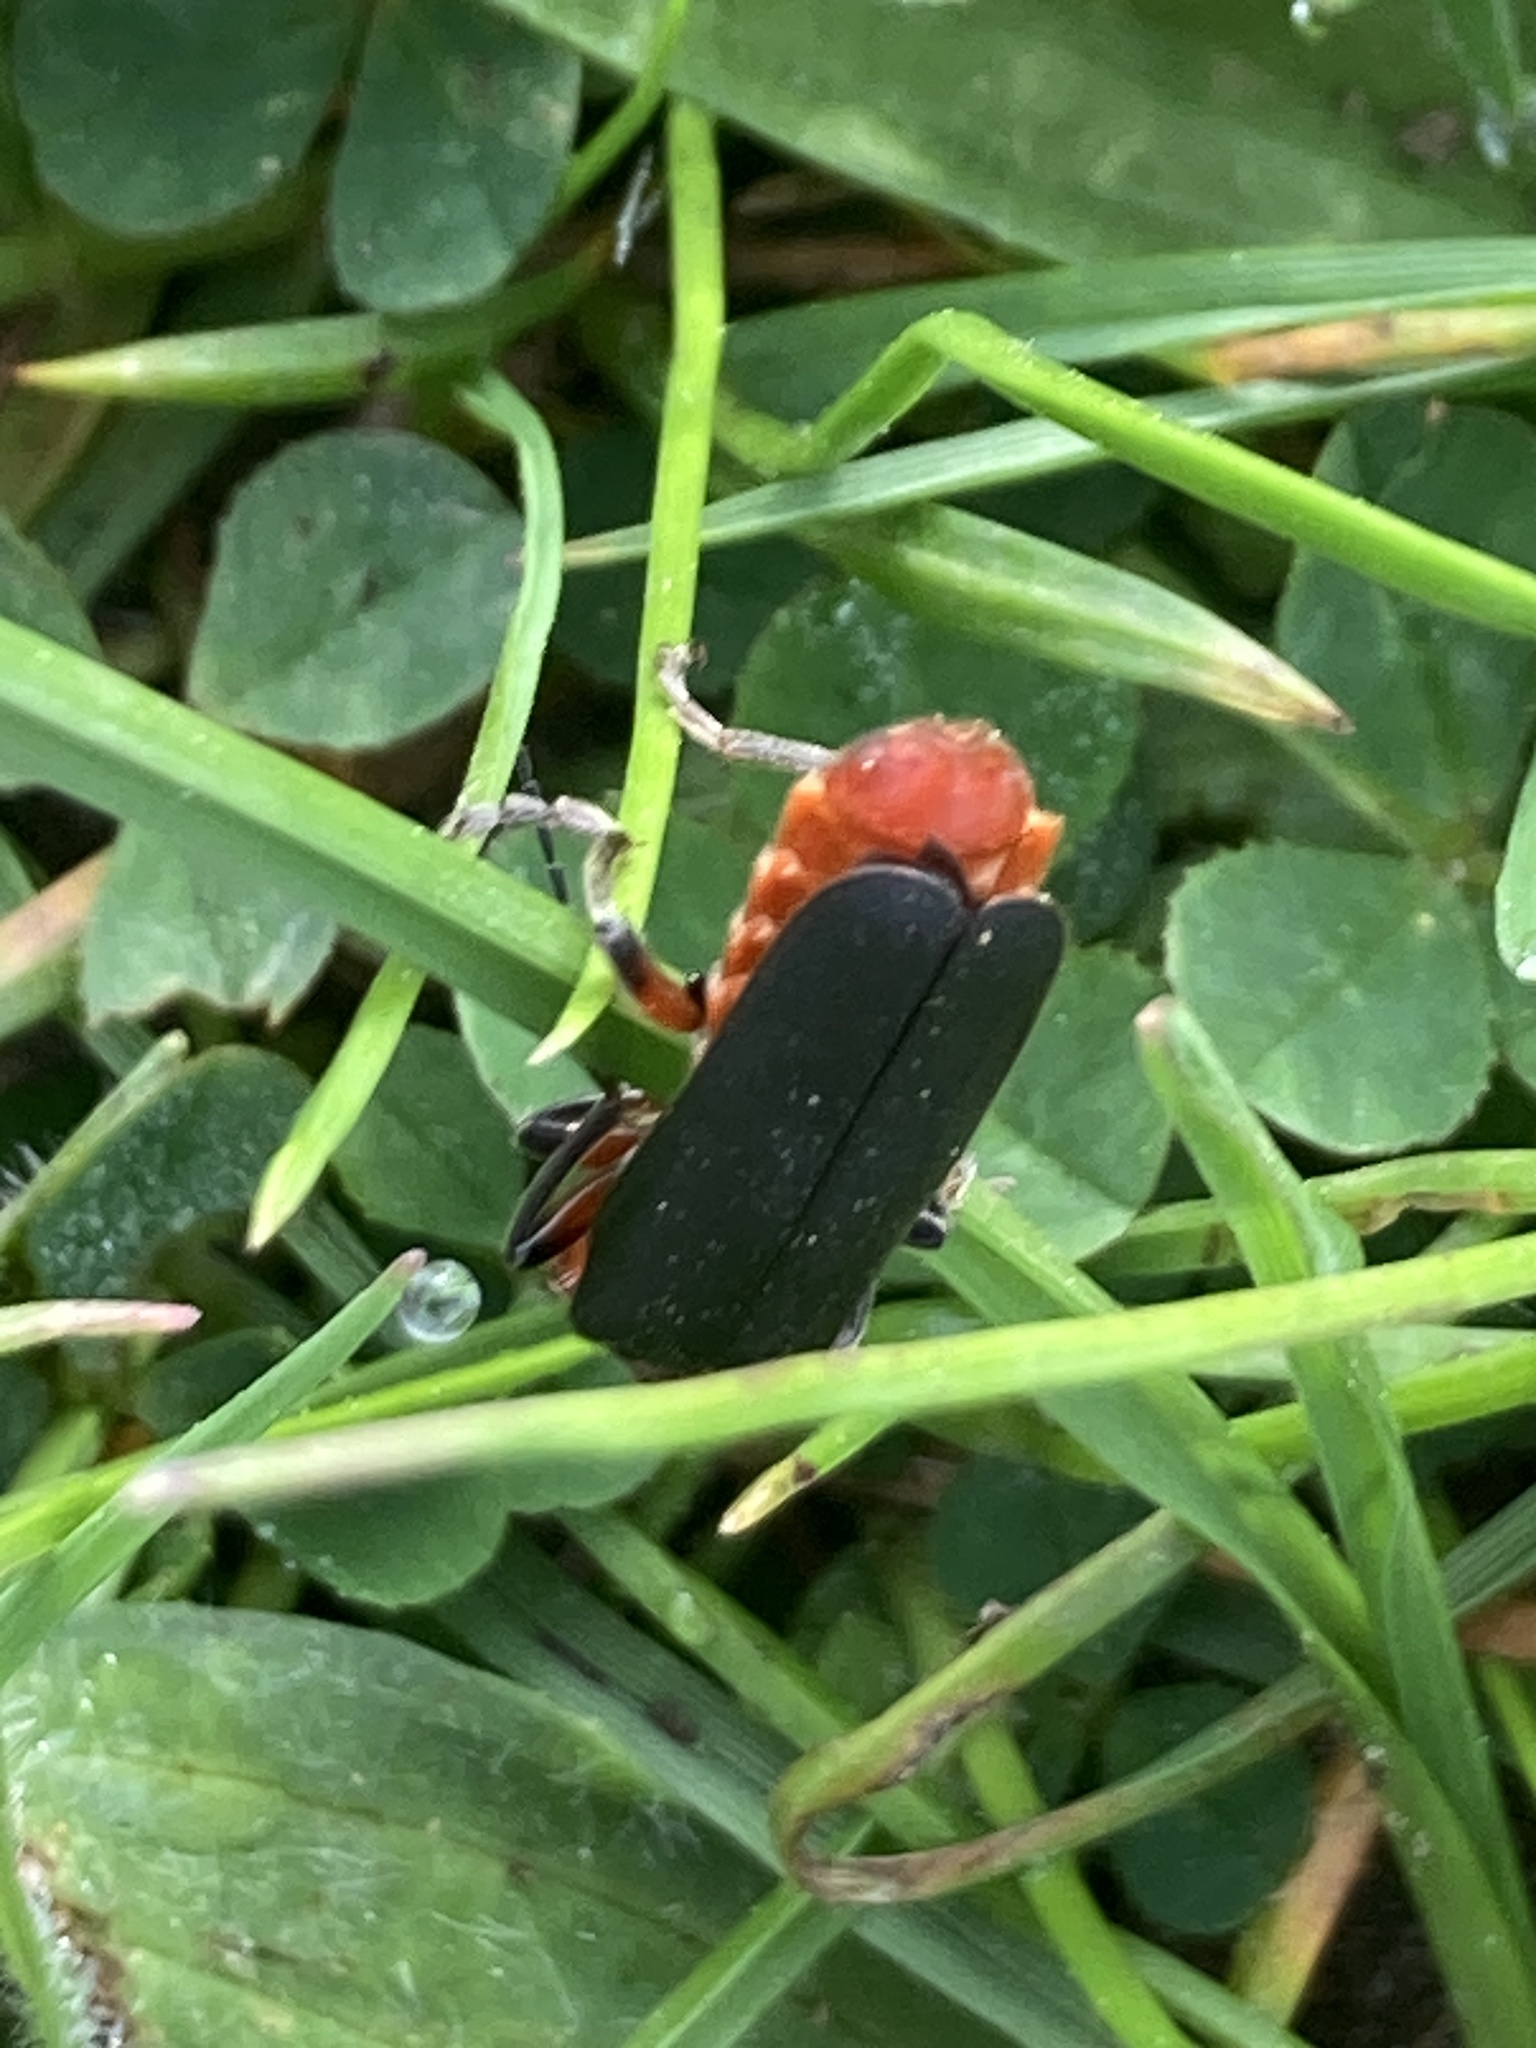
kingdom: Animalia
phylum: Arthropoda
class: Insecta
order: Coleoptera
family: Cantharidae
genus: Cantharis
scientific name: Cantharis rustica
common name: Soldier beetle
